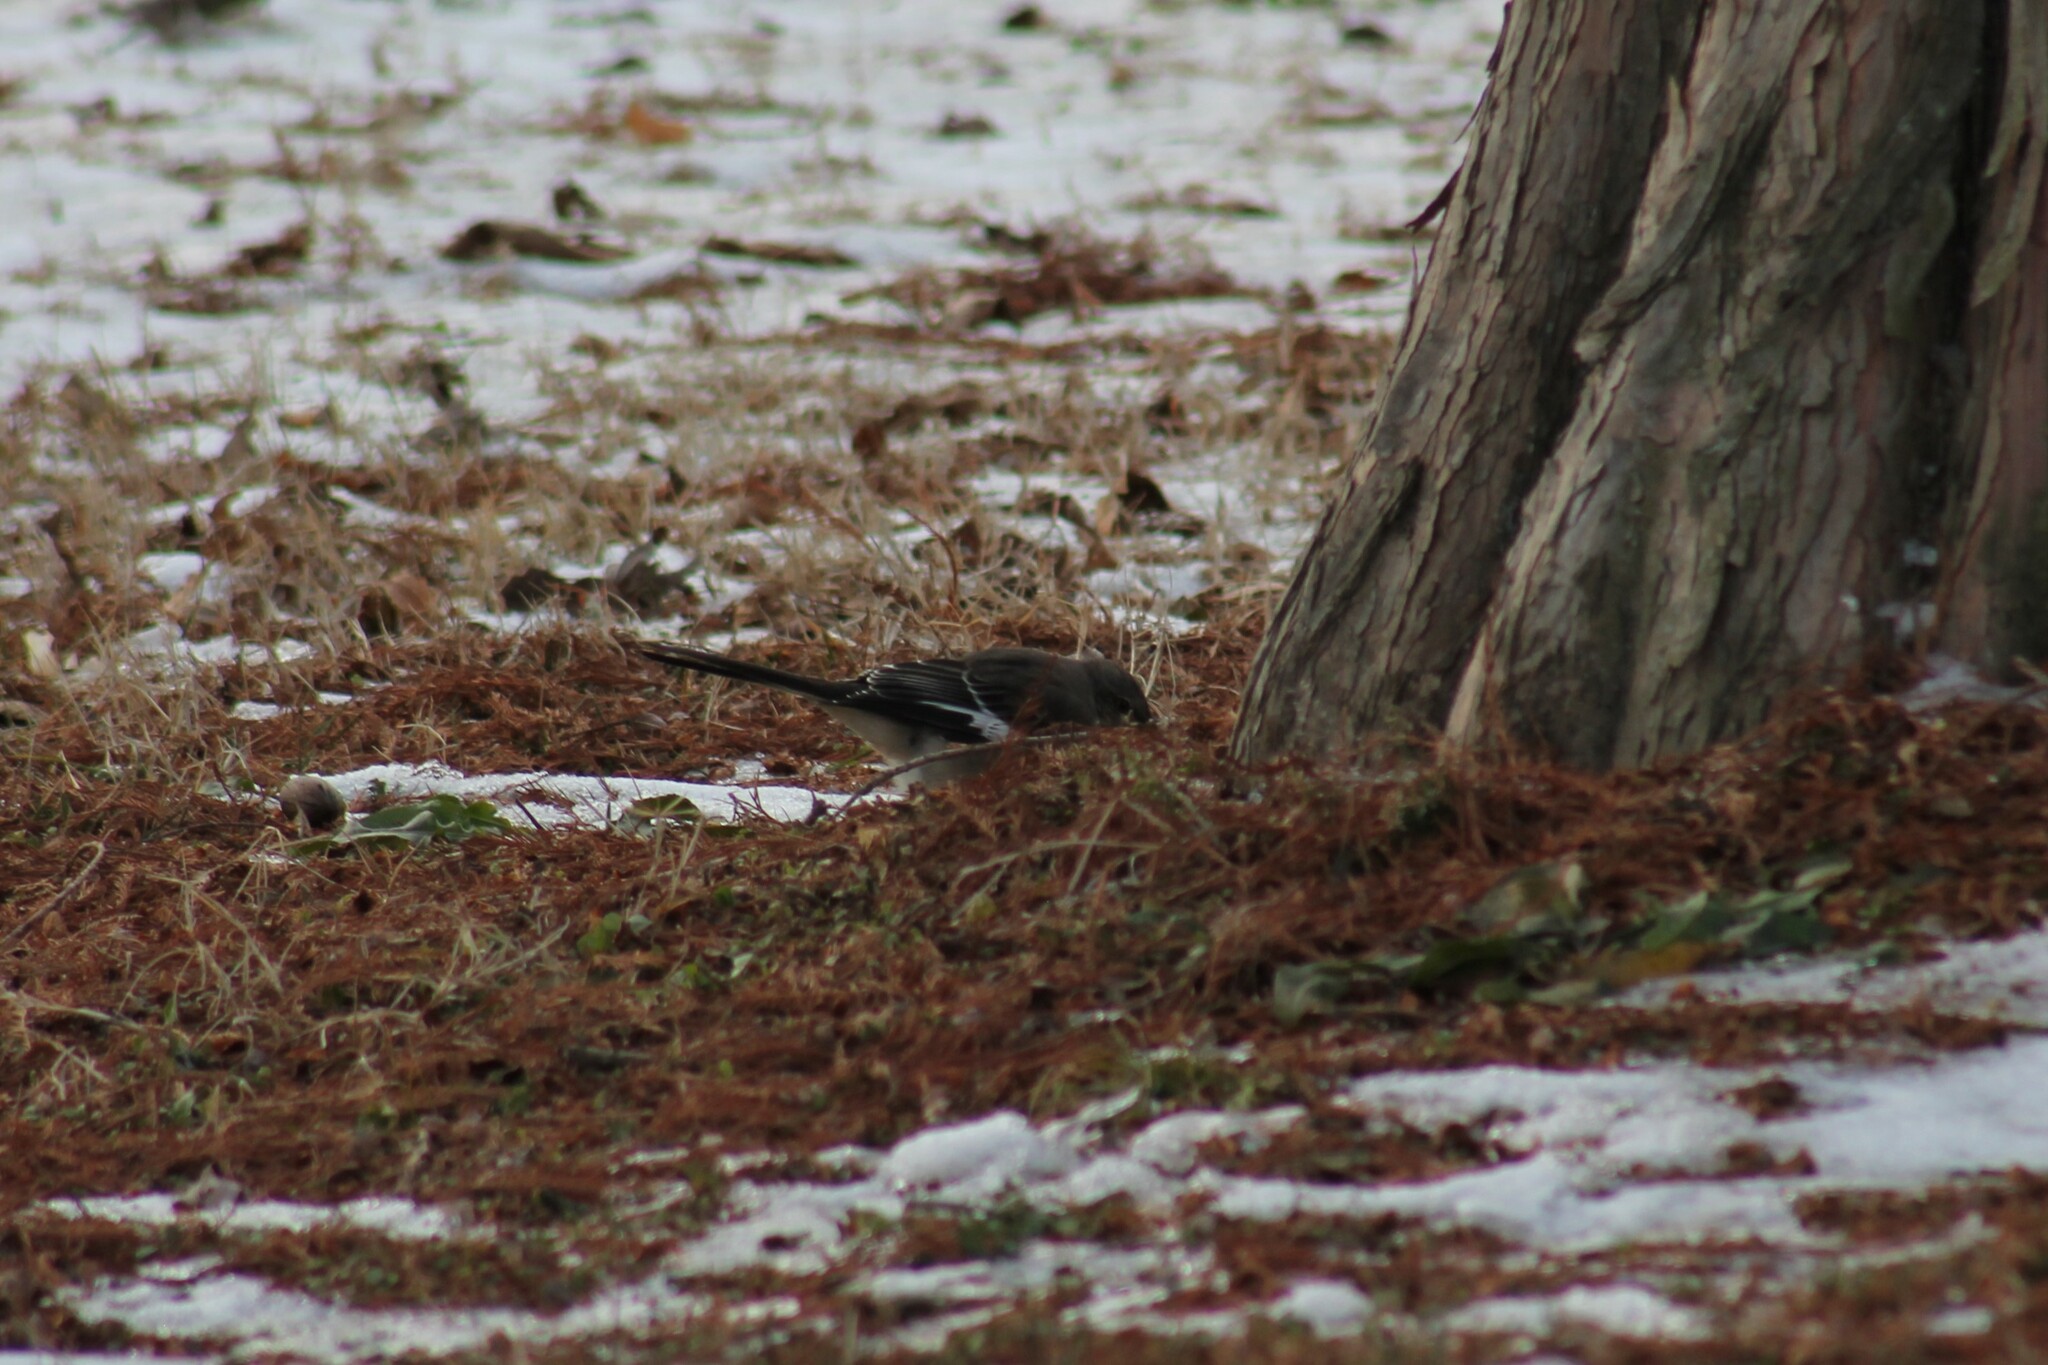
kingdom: Animalia
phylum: Chordata
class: Aves
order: Passeriformes
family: Mimidae
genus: Mimus
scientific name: Mimus polyglottos
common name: Northern mockingbird
